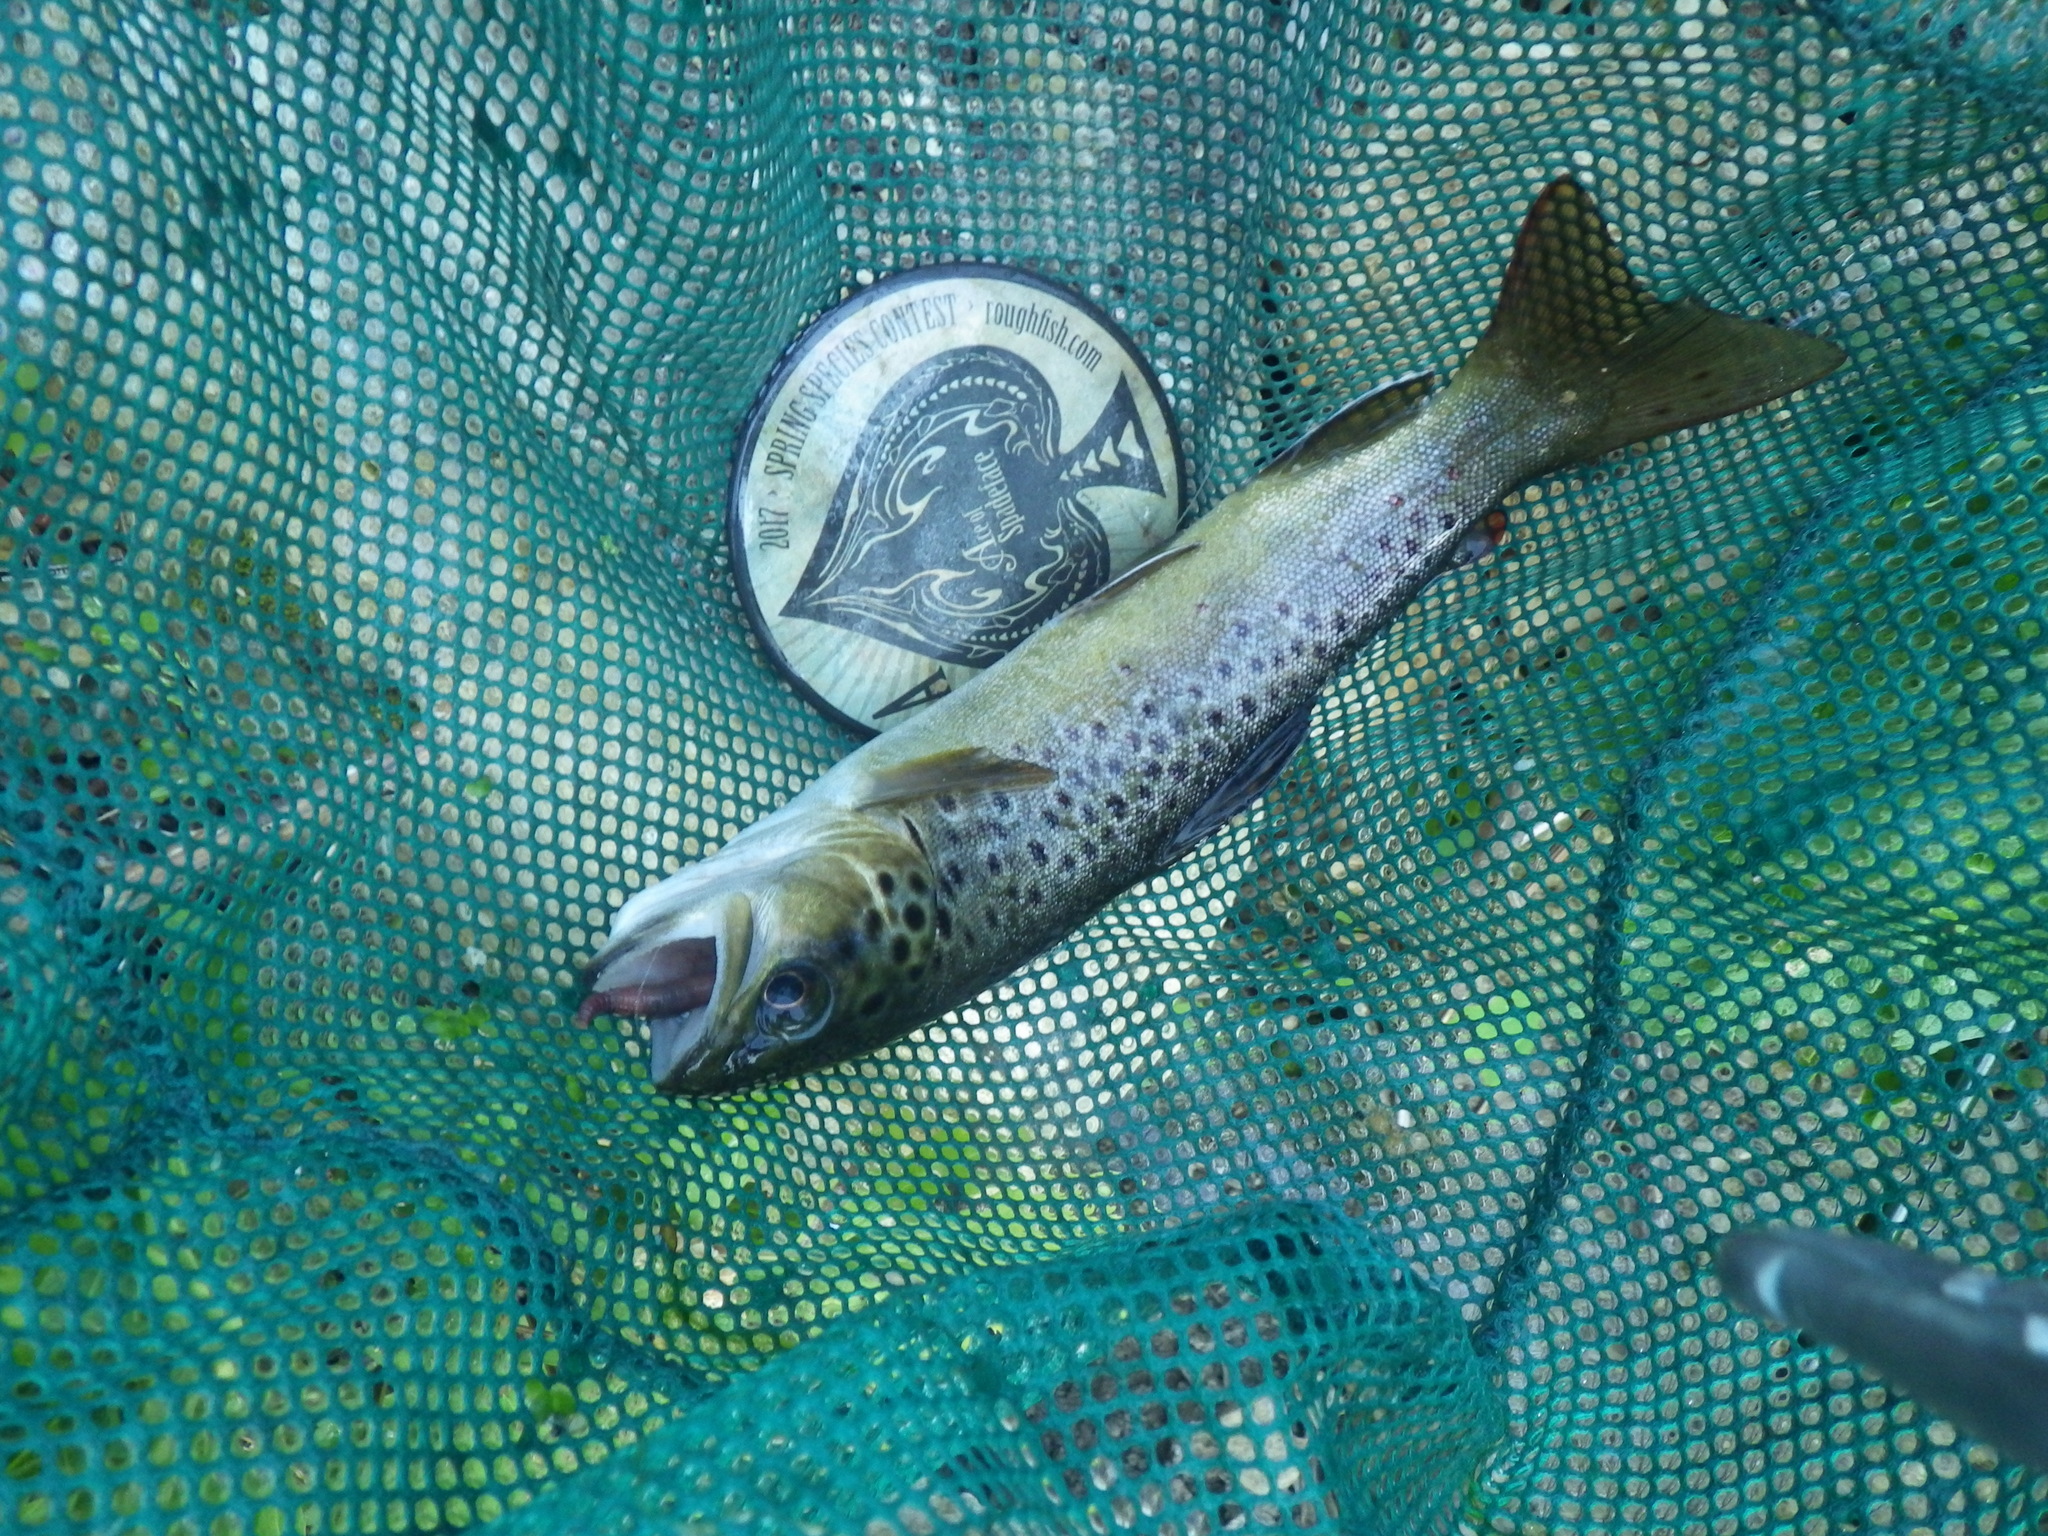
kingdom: Animalia
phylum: Chordata
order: Salmoniformes
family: Salmonidae
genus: Salmo
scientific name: Salmo trutta
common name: Brown trout
